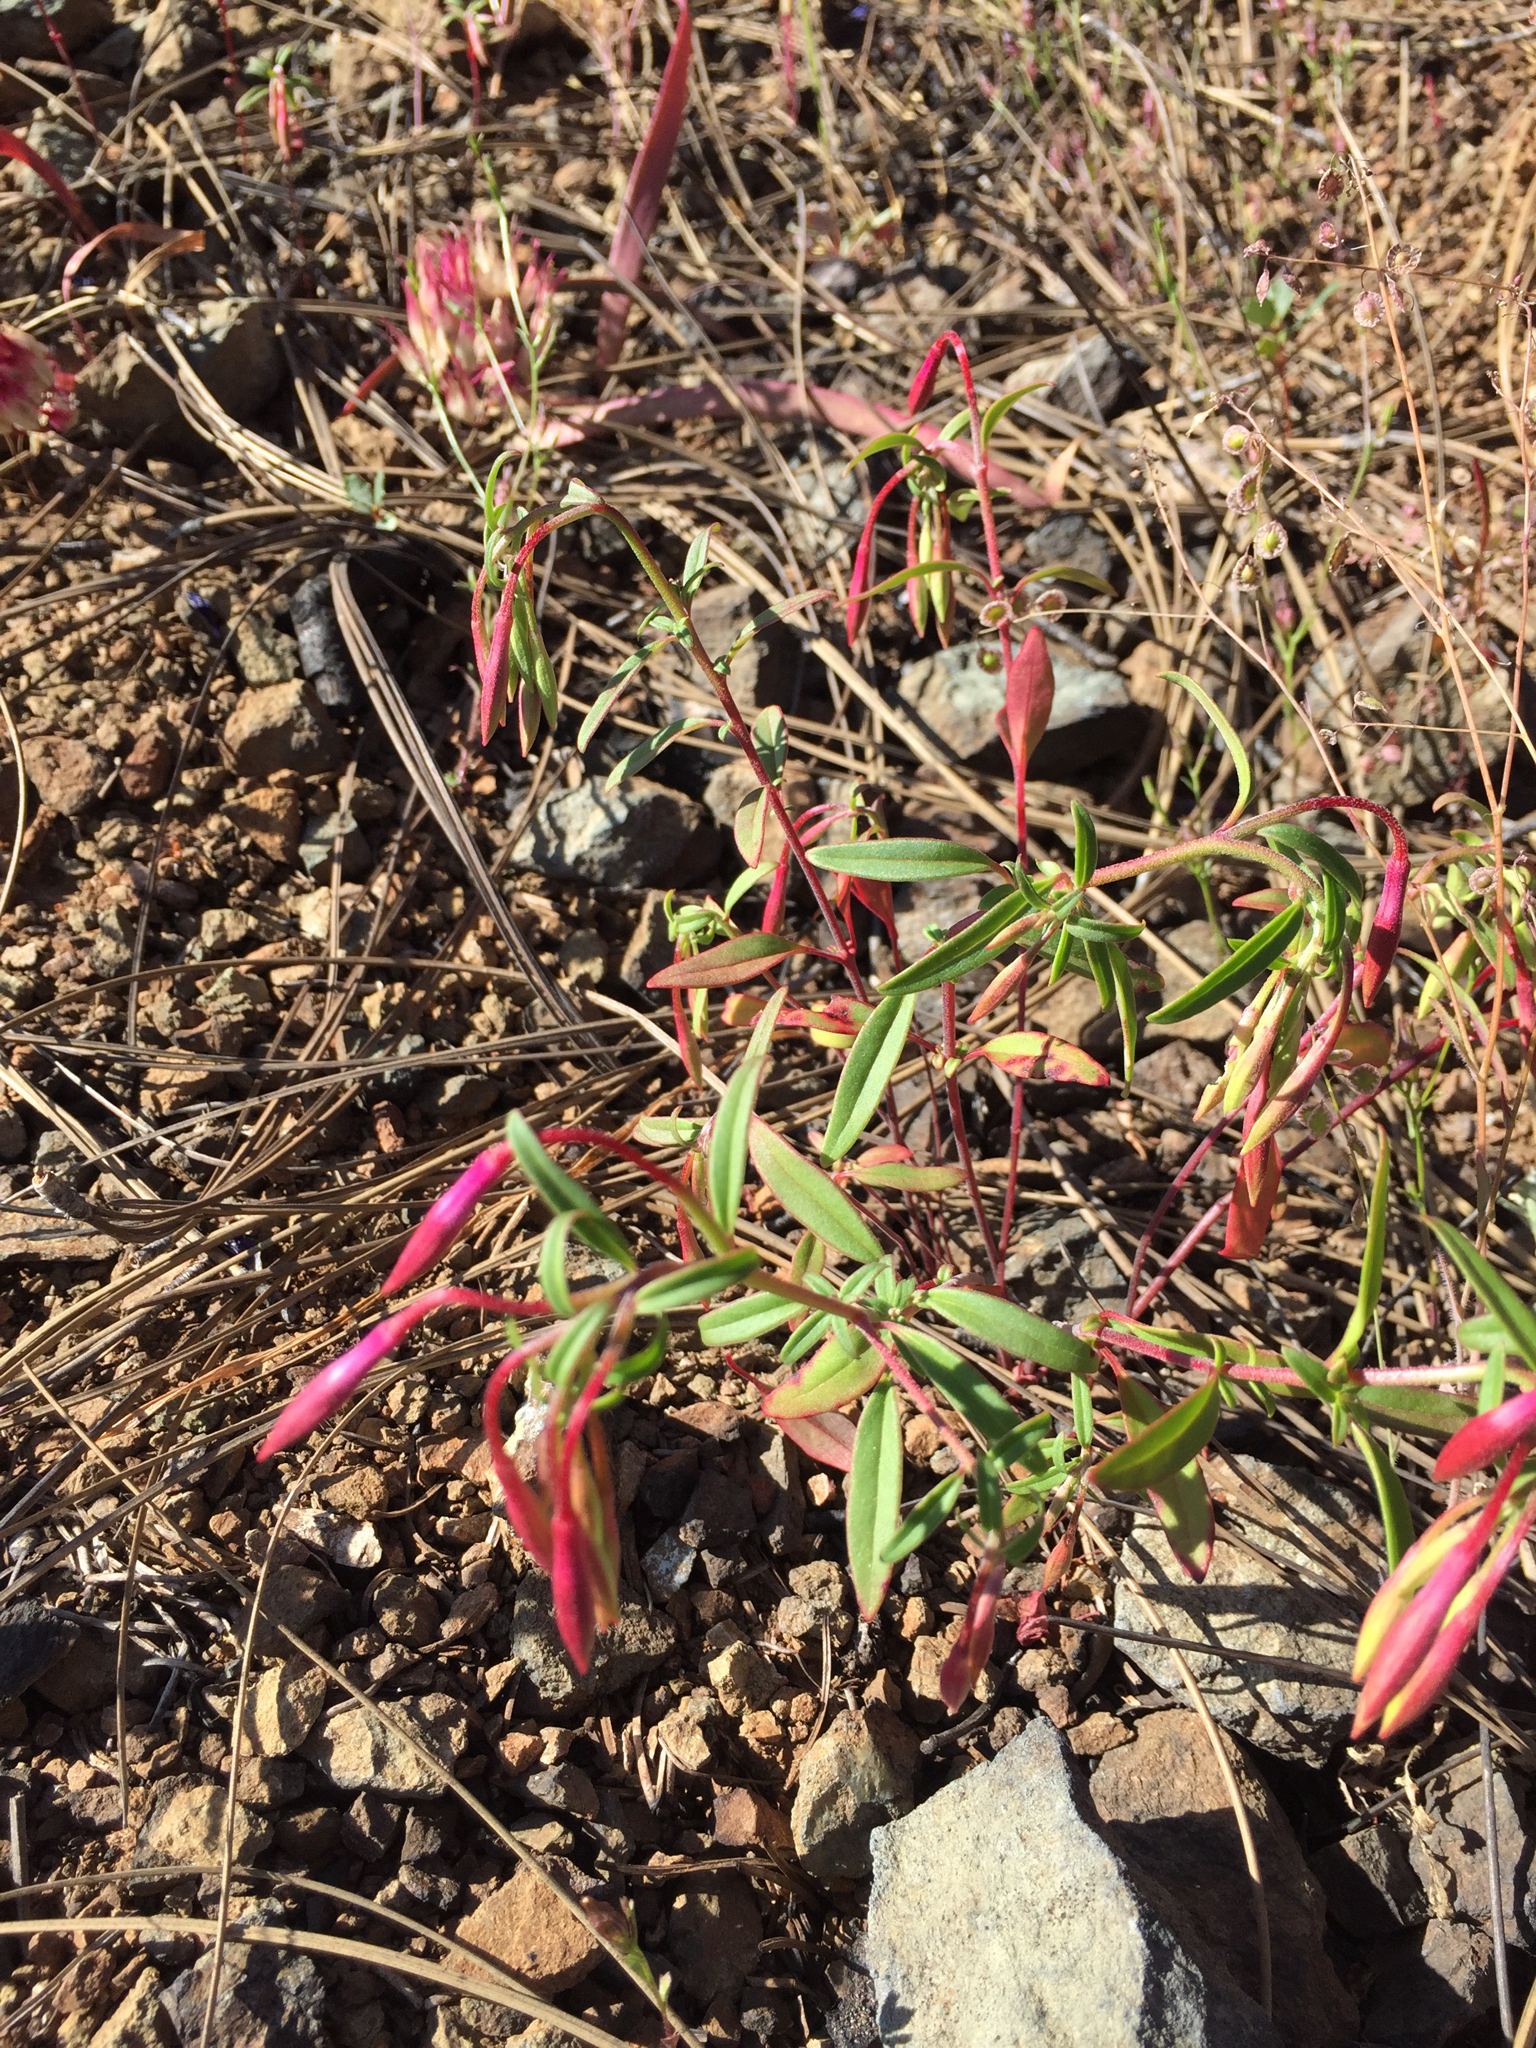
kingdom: Plantae
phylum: Tracheophyta
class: Magnoliopsida
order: Myrtales
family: Onagraceae
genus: Clarkia
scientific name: Clarkia concinna
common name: Red-ribbons
